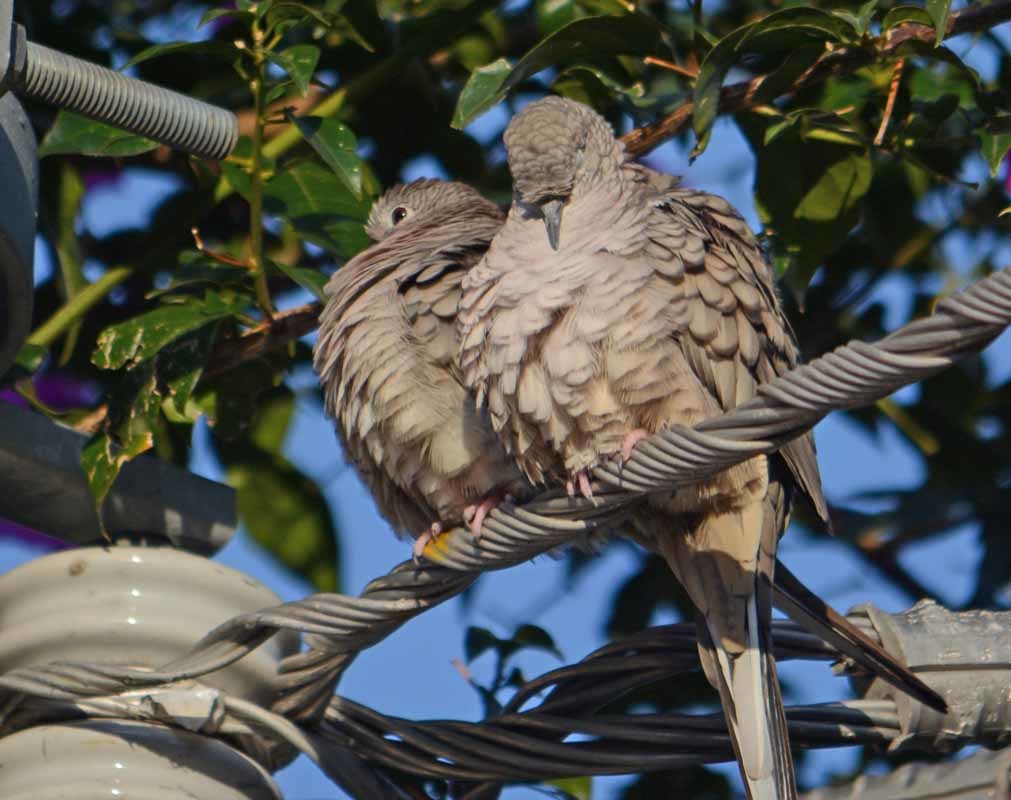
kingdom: Animalia
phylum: Chordata
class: Aves
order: Columbiformes
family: Columbidae
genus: Columbina
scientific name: Columbina inca
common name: Inca dove
